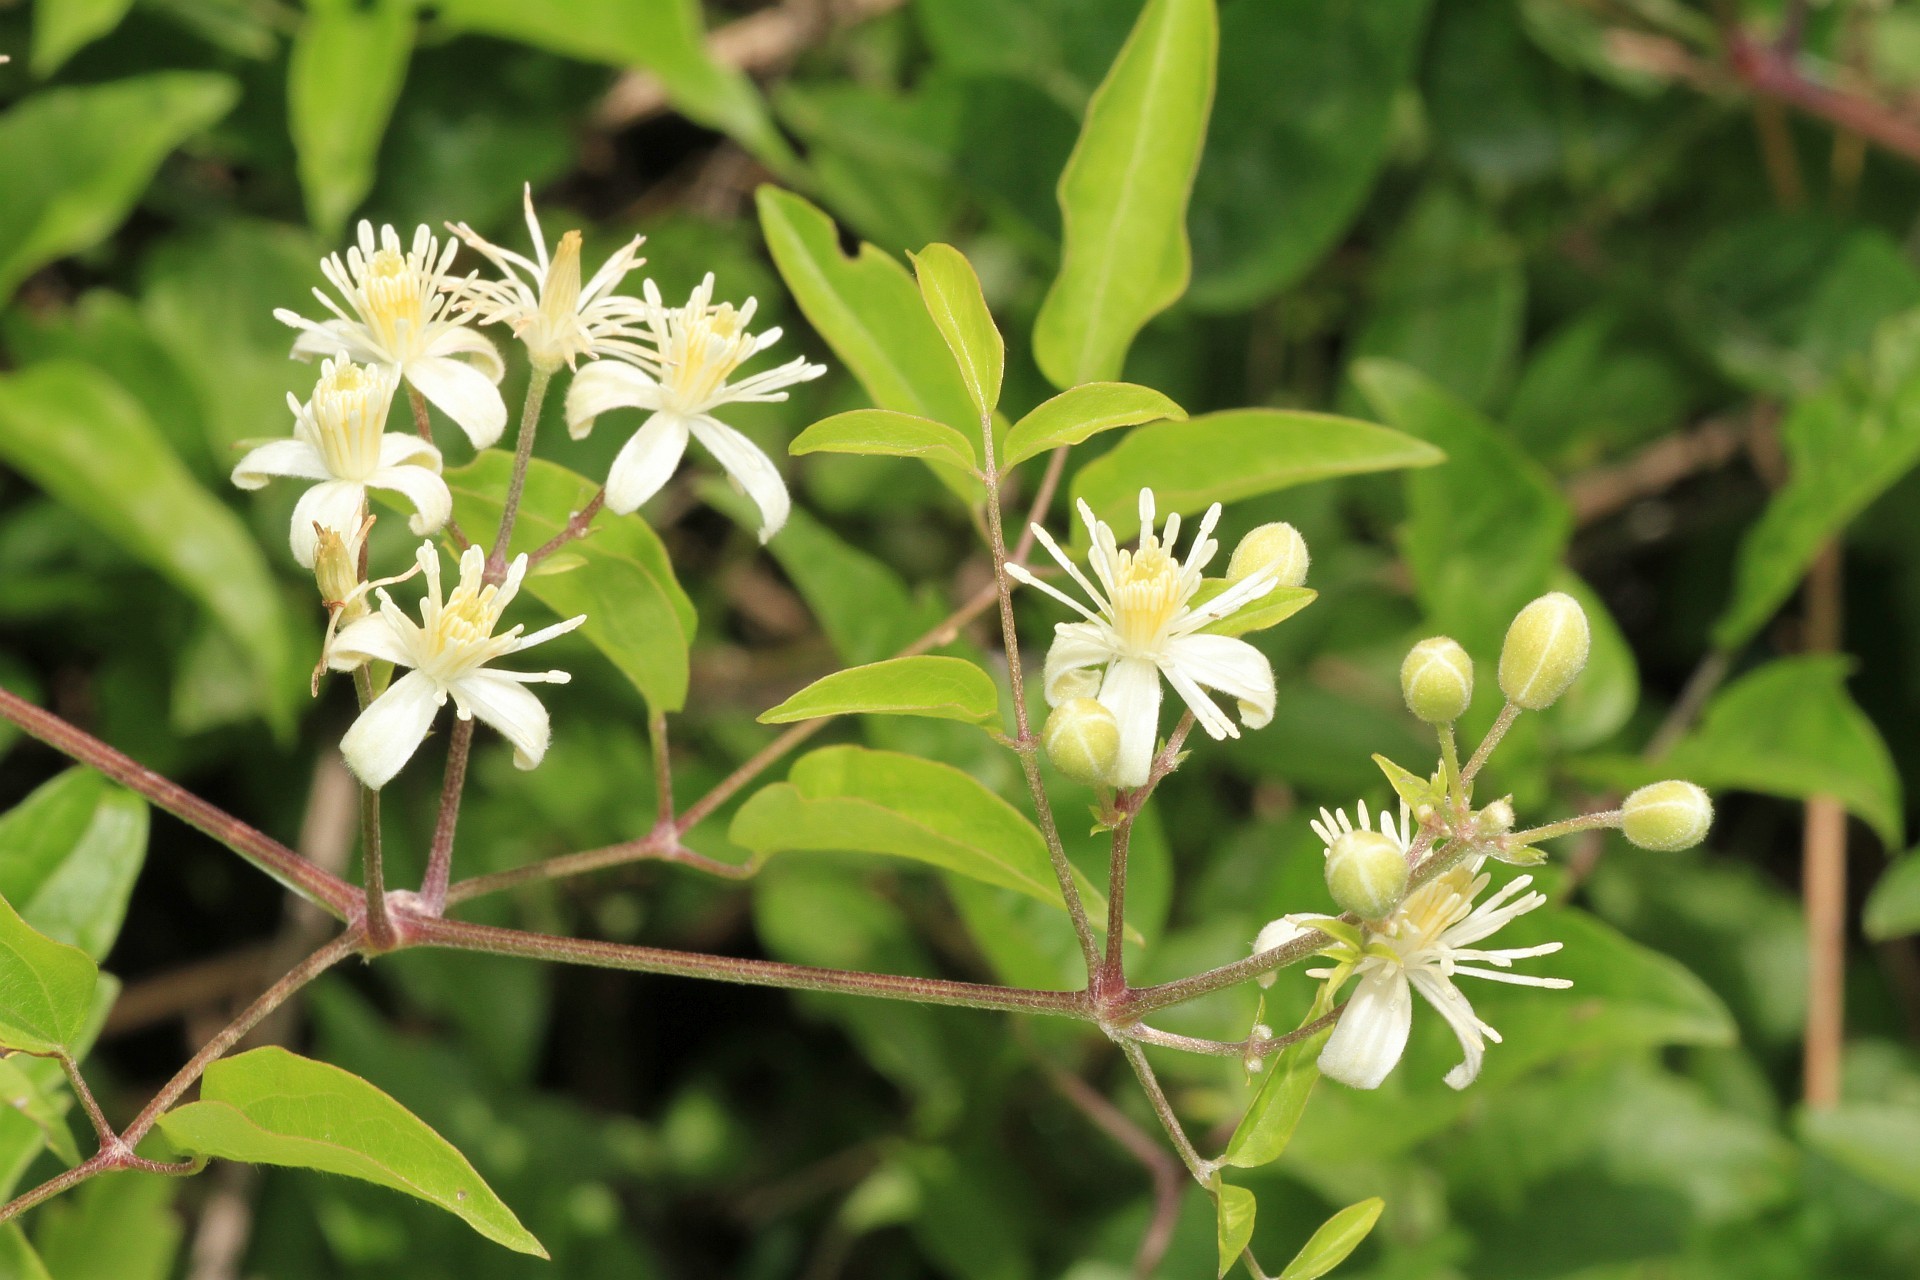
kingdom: Plantae
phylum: Tracheophyta
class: Magnoliopsida
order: Ranunculales
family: Ranunculaceae
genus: Clematis
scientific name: Clematis vitalba
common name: Evergreen clematis
